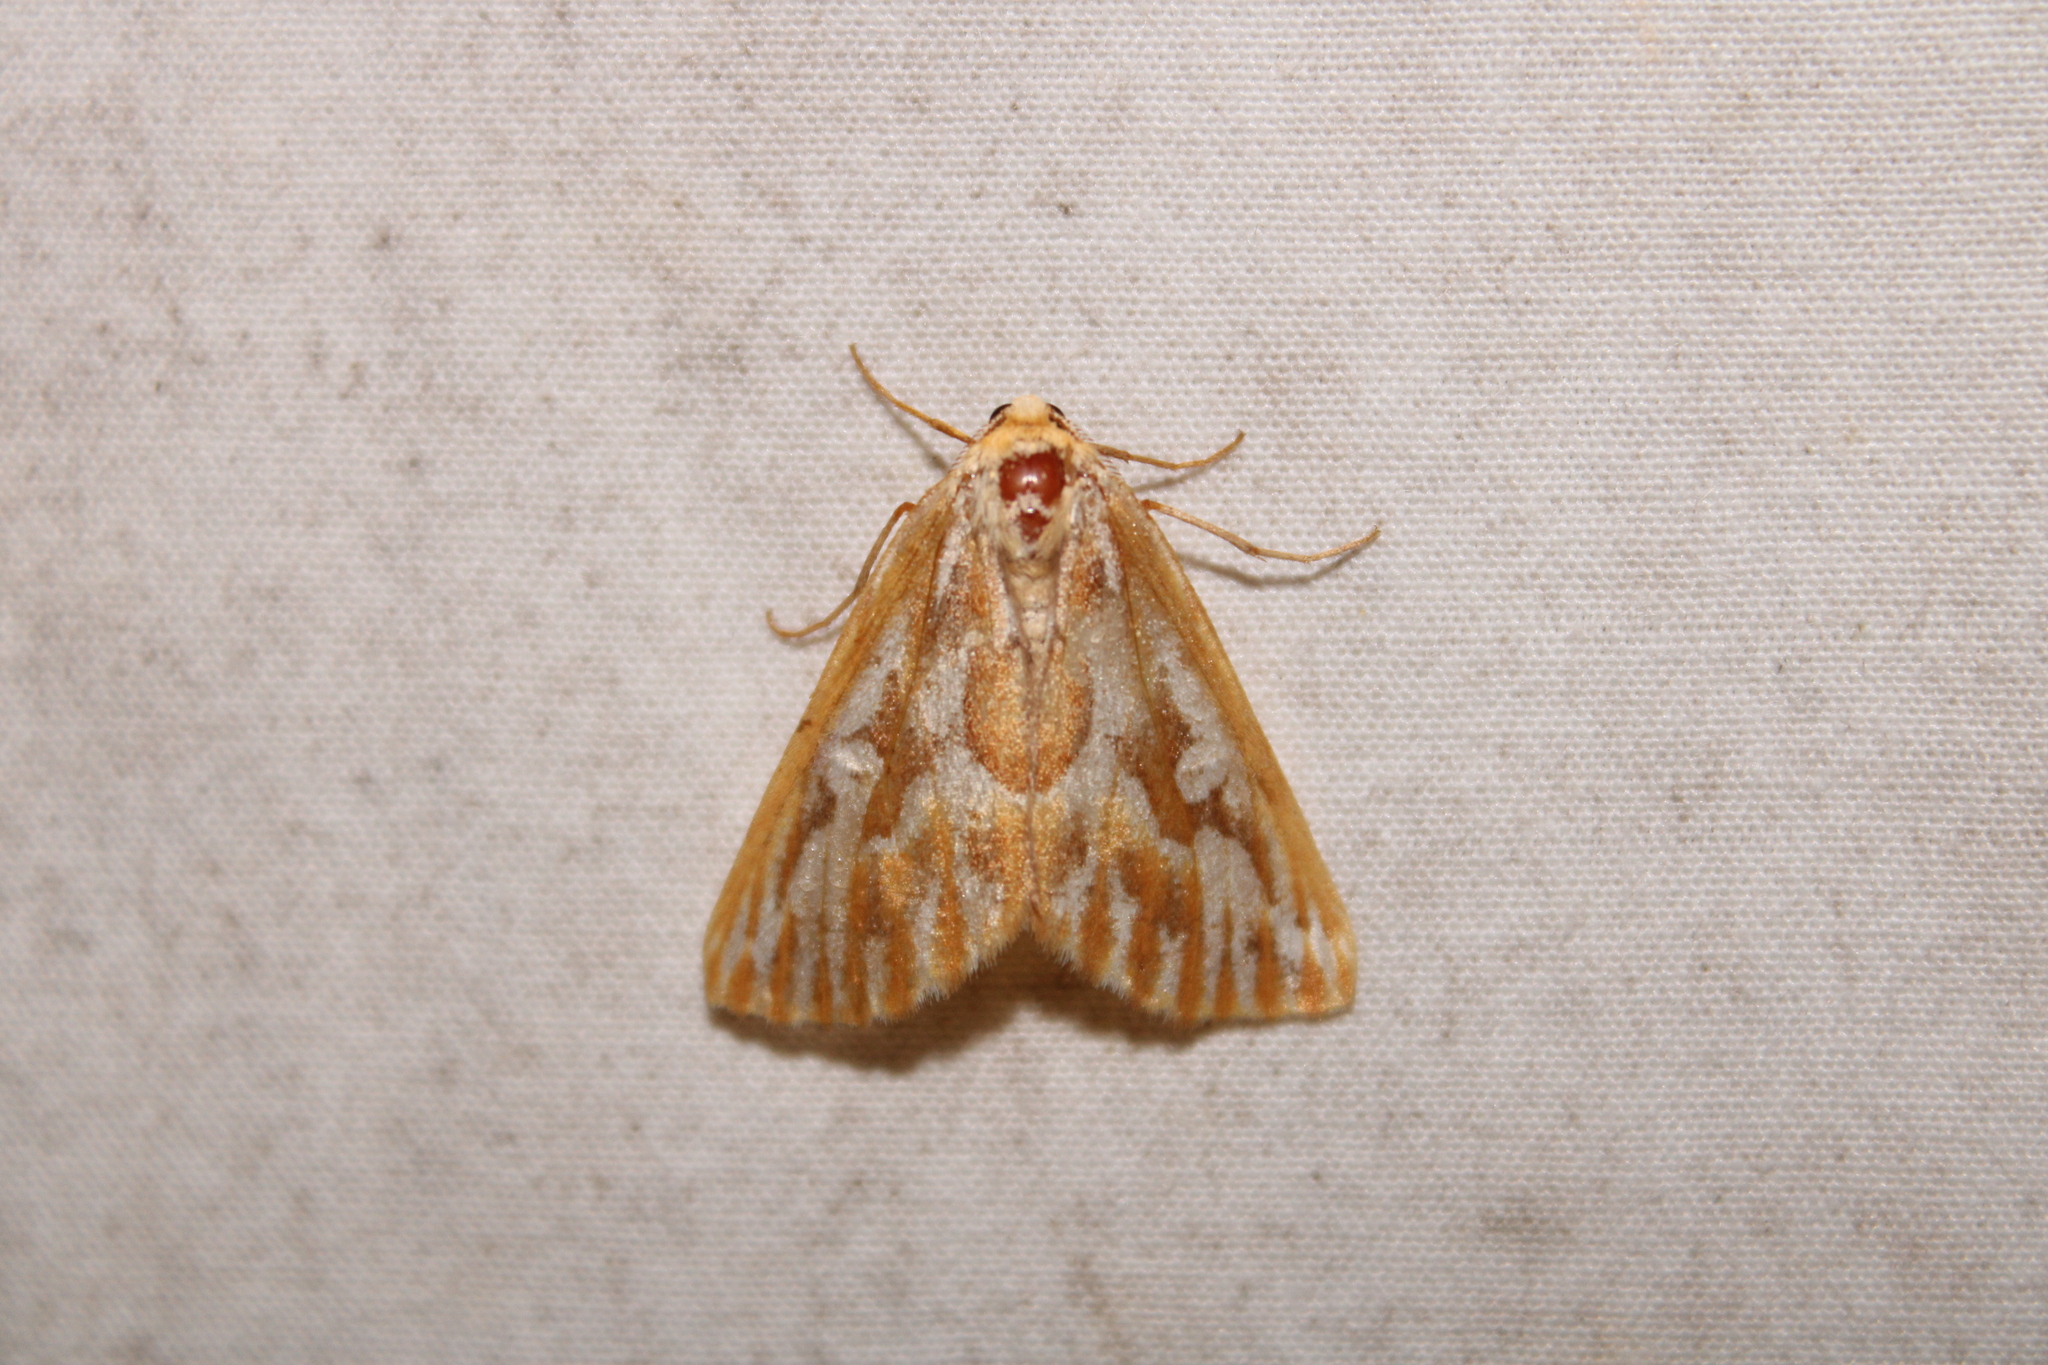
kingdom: Animalia
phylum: Arthropoda
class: Insecta
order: Lepidoptera
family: Geometridae
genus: Caripeta
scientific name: Caripeta piniata
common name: Northern pine looper moth
